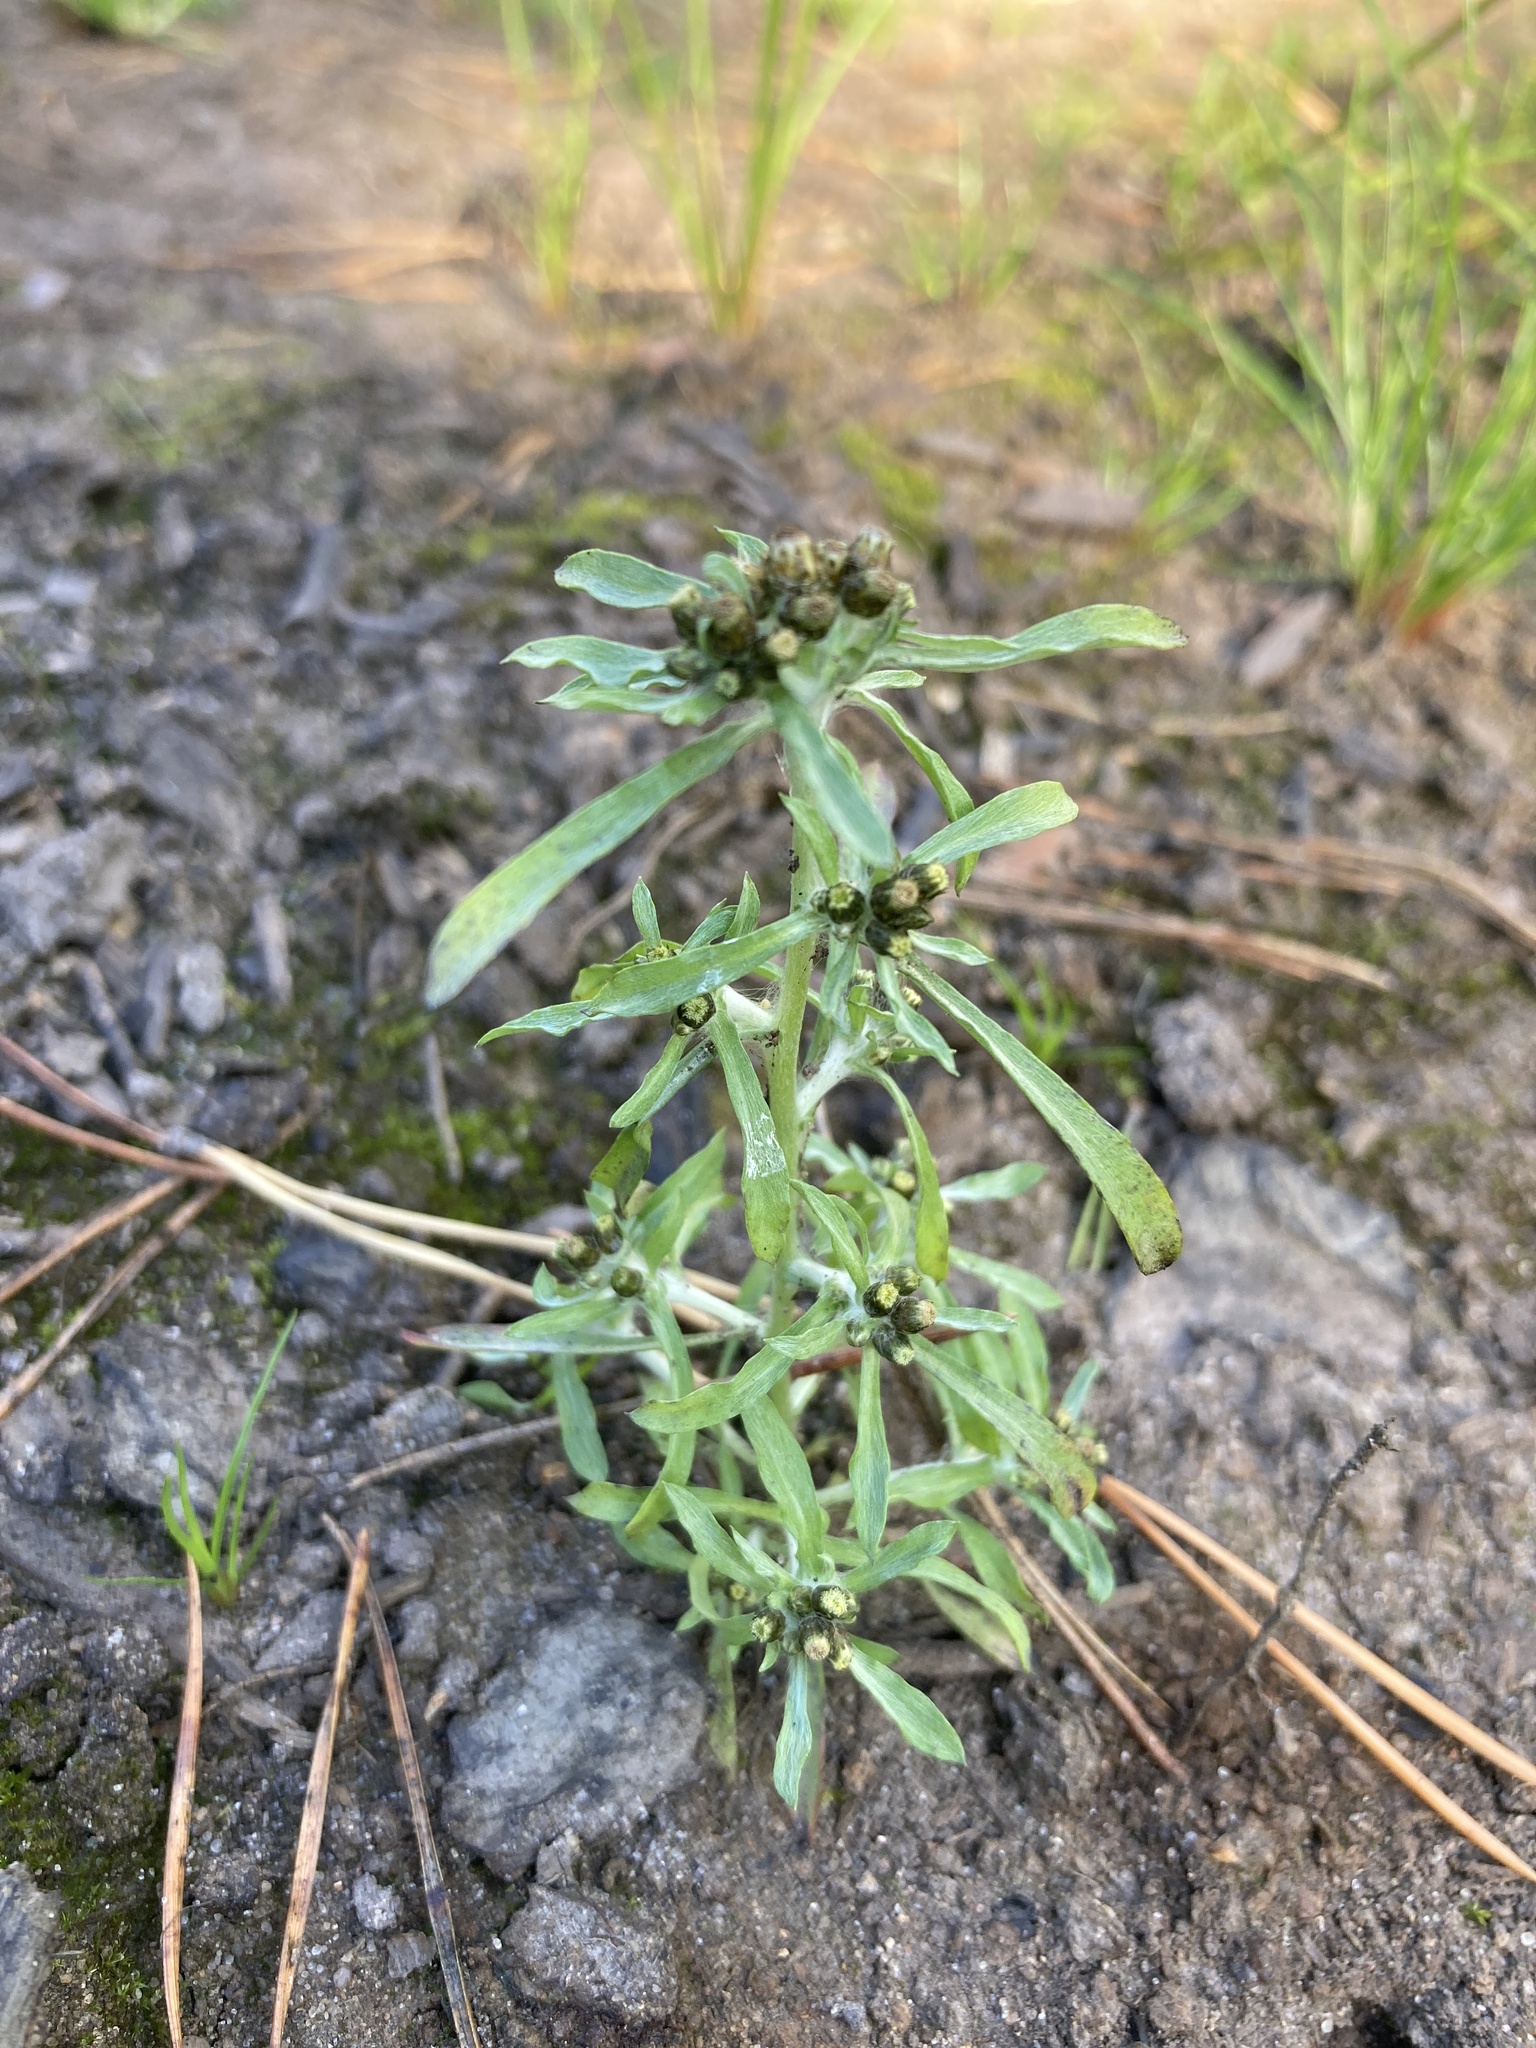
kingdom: Plantae
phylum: Tracheophyta
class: Magnoliopsida
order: Asterales
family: Asteraceae
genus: Gnaphalium
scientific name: Gnaphalium uliginosum
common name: Marsh cudweed
